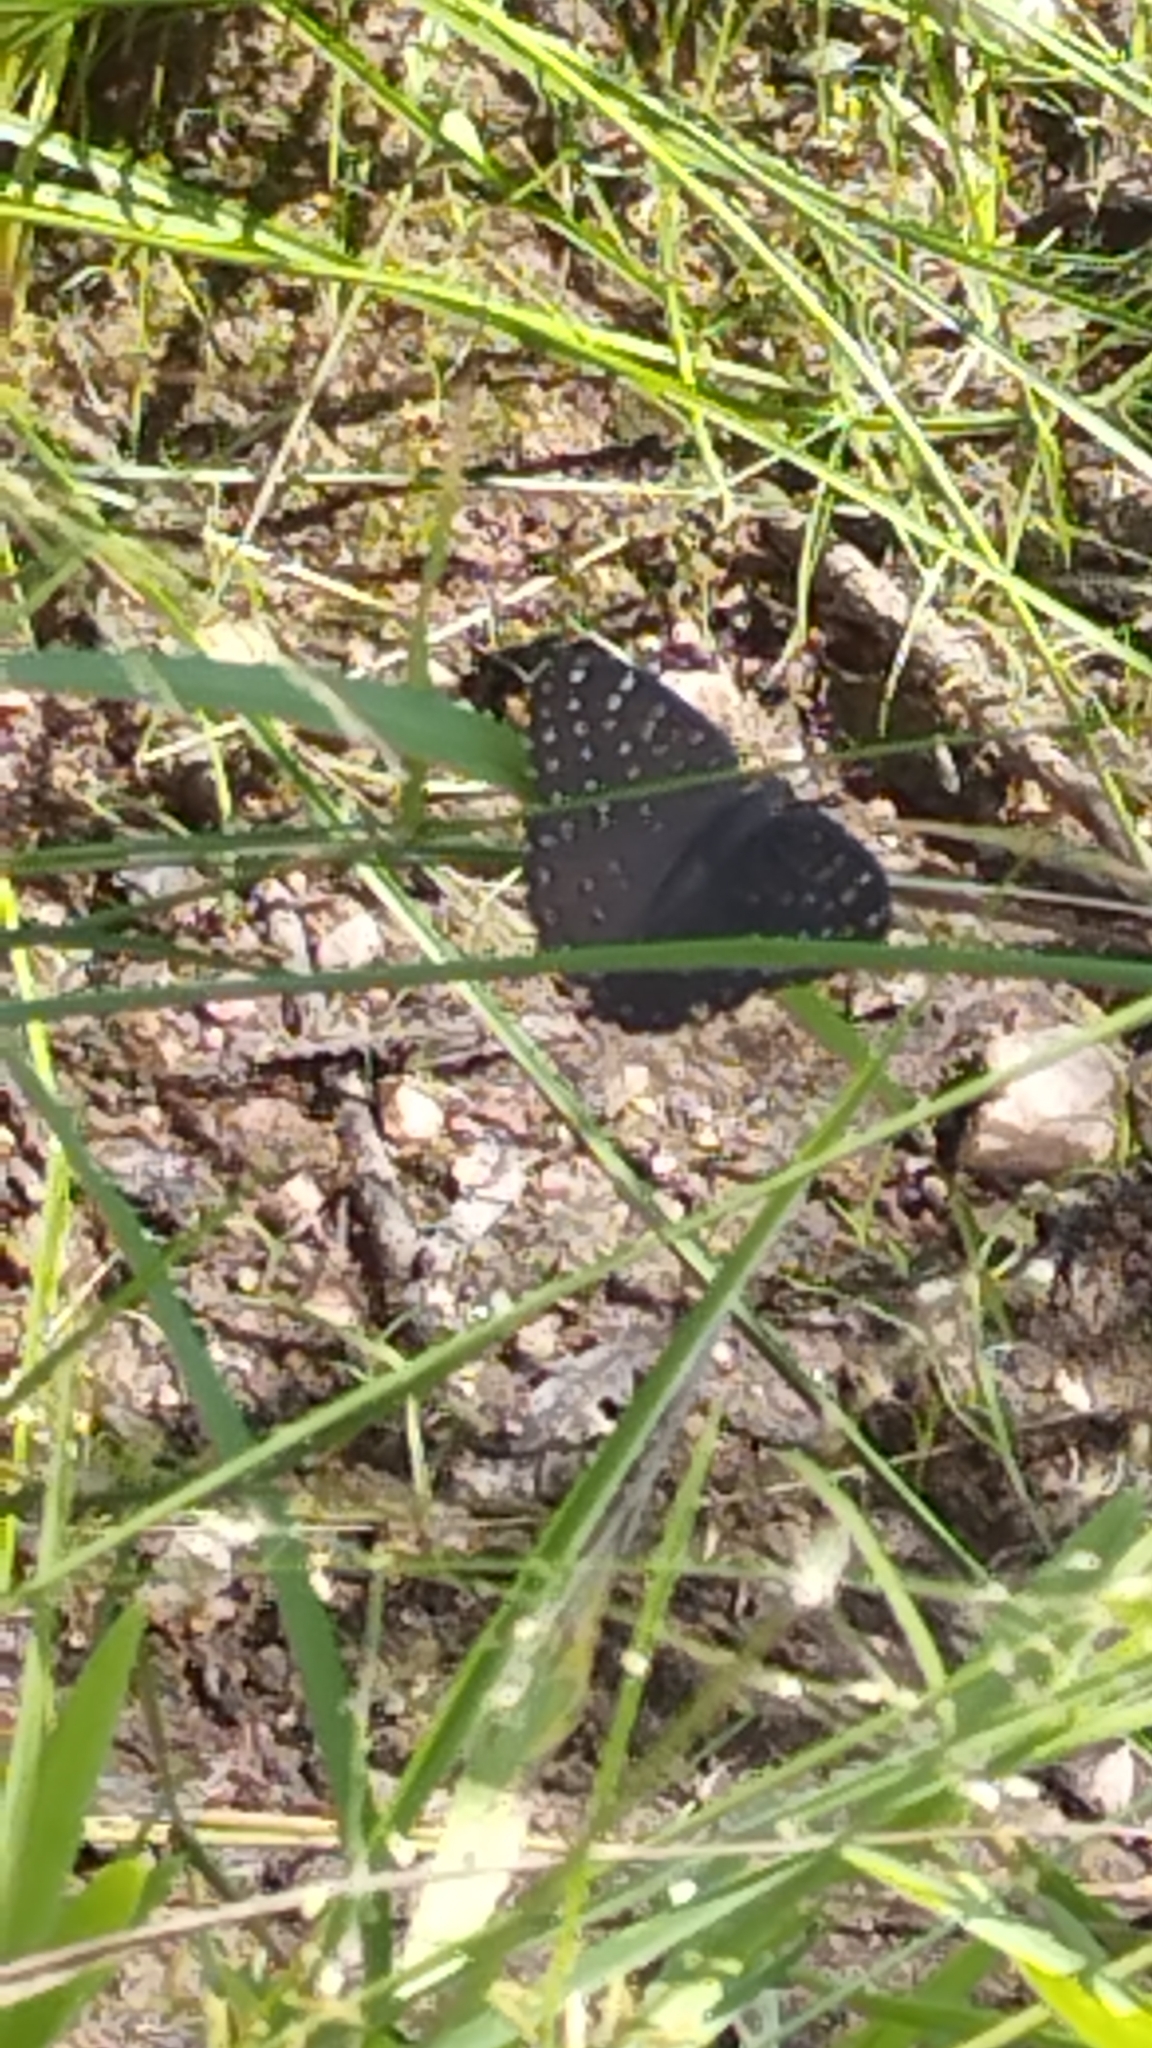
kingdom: Animalia
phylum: Arthropoda
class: Insecta
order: Lepidoptera
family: Nymphalidae
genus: Hamanumida
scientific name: Hamanumida daedalus
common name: Guinea-fowl butterfly
